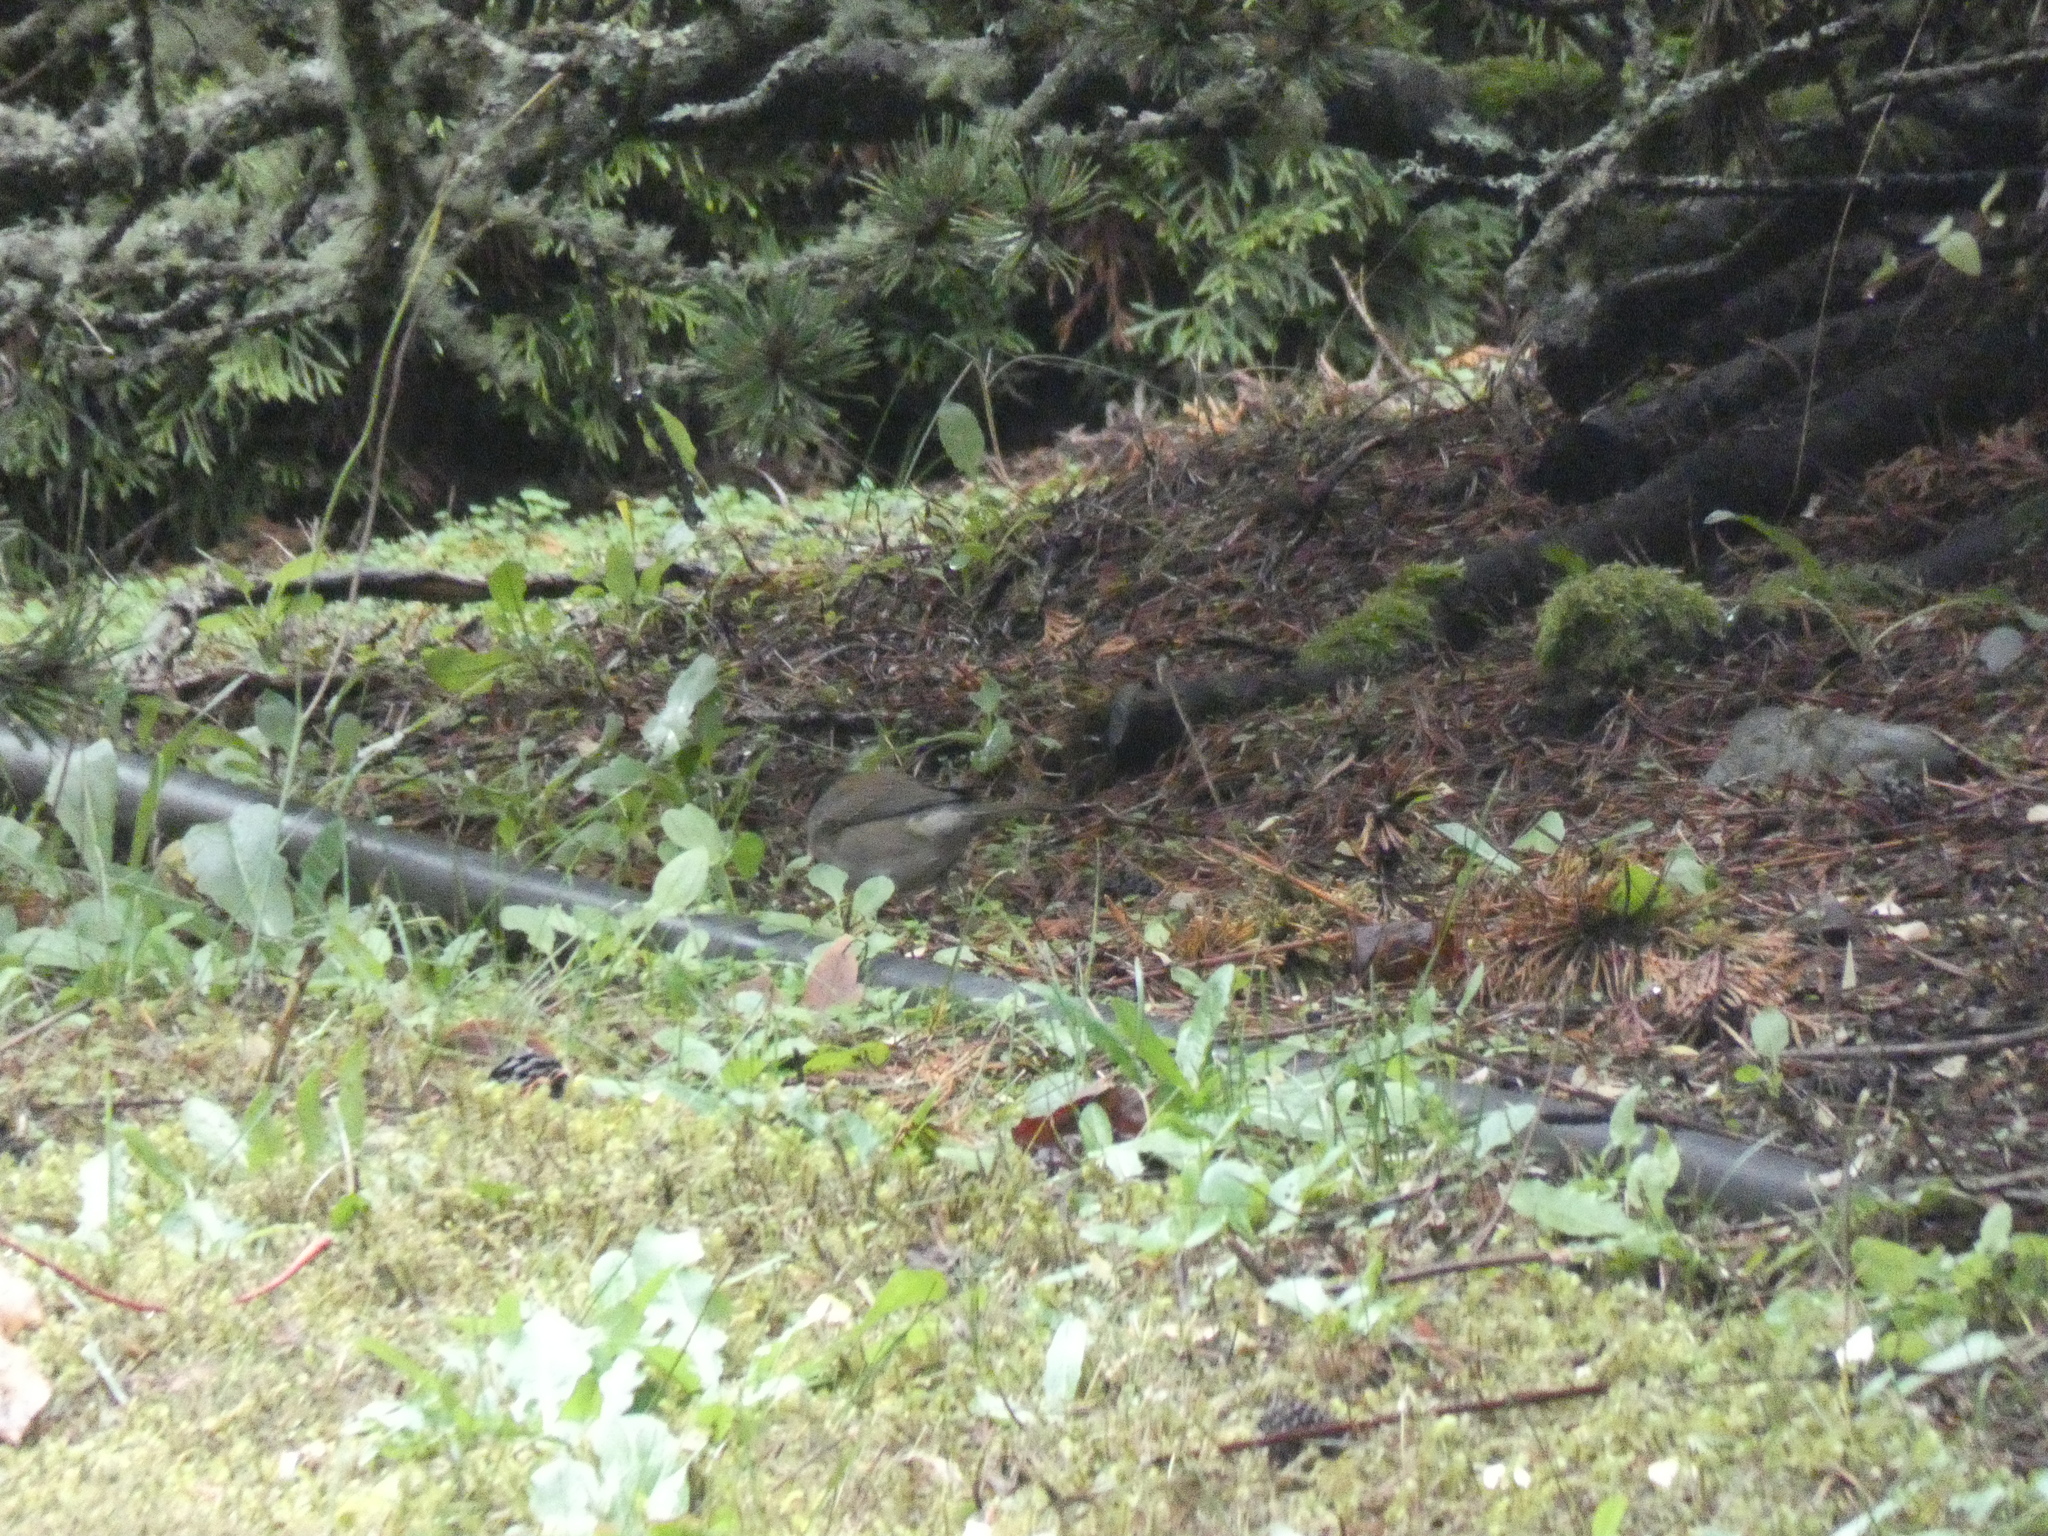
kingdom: Animalia
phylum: Chordata
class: Aves
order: Passeriformes
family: Passerellidae
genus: Junco
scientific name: Junco hyemalis
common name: Dark-eyed junco
